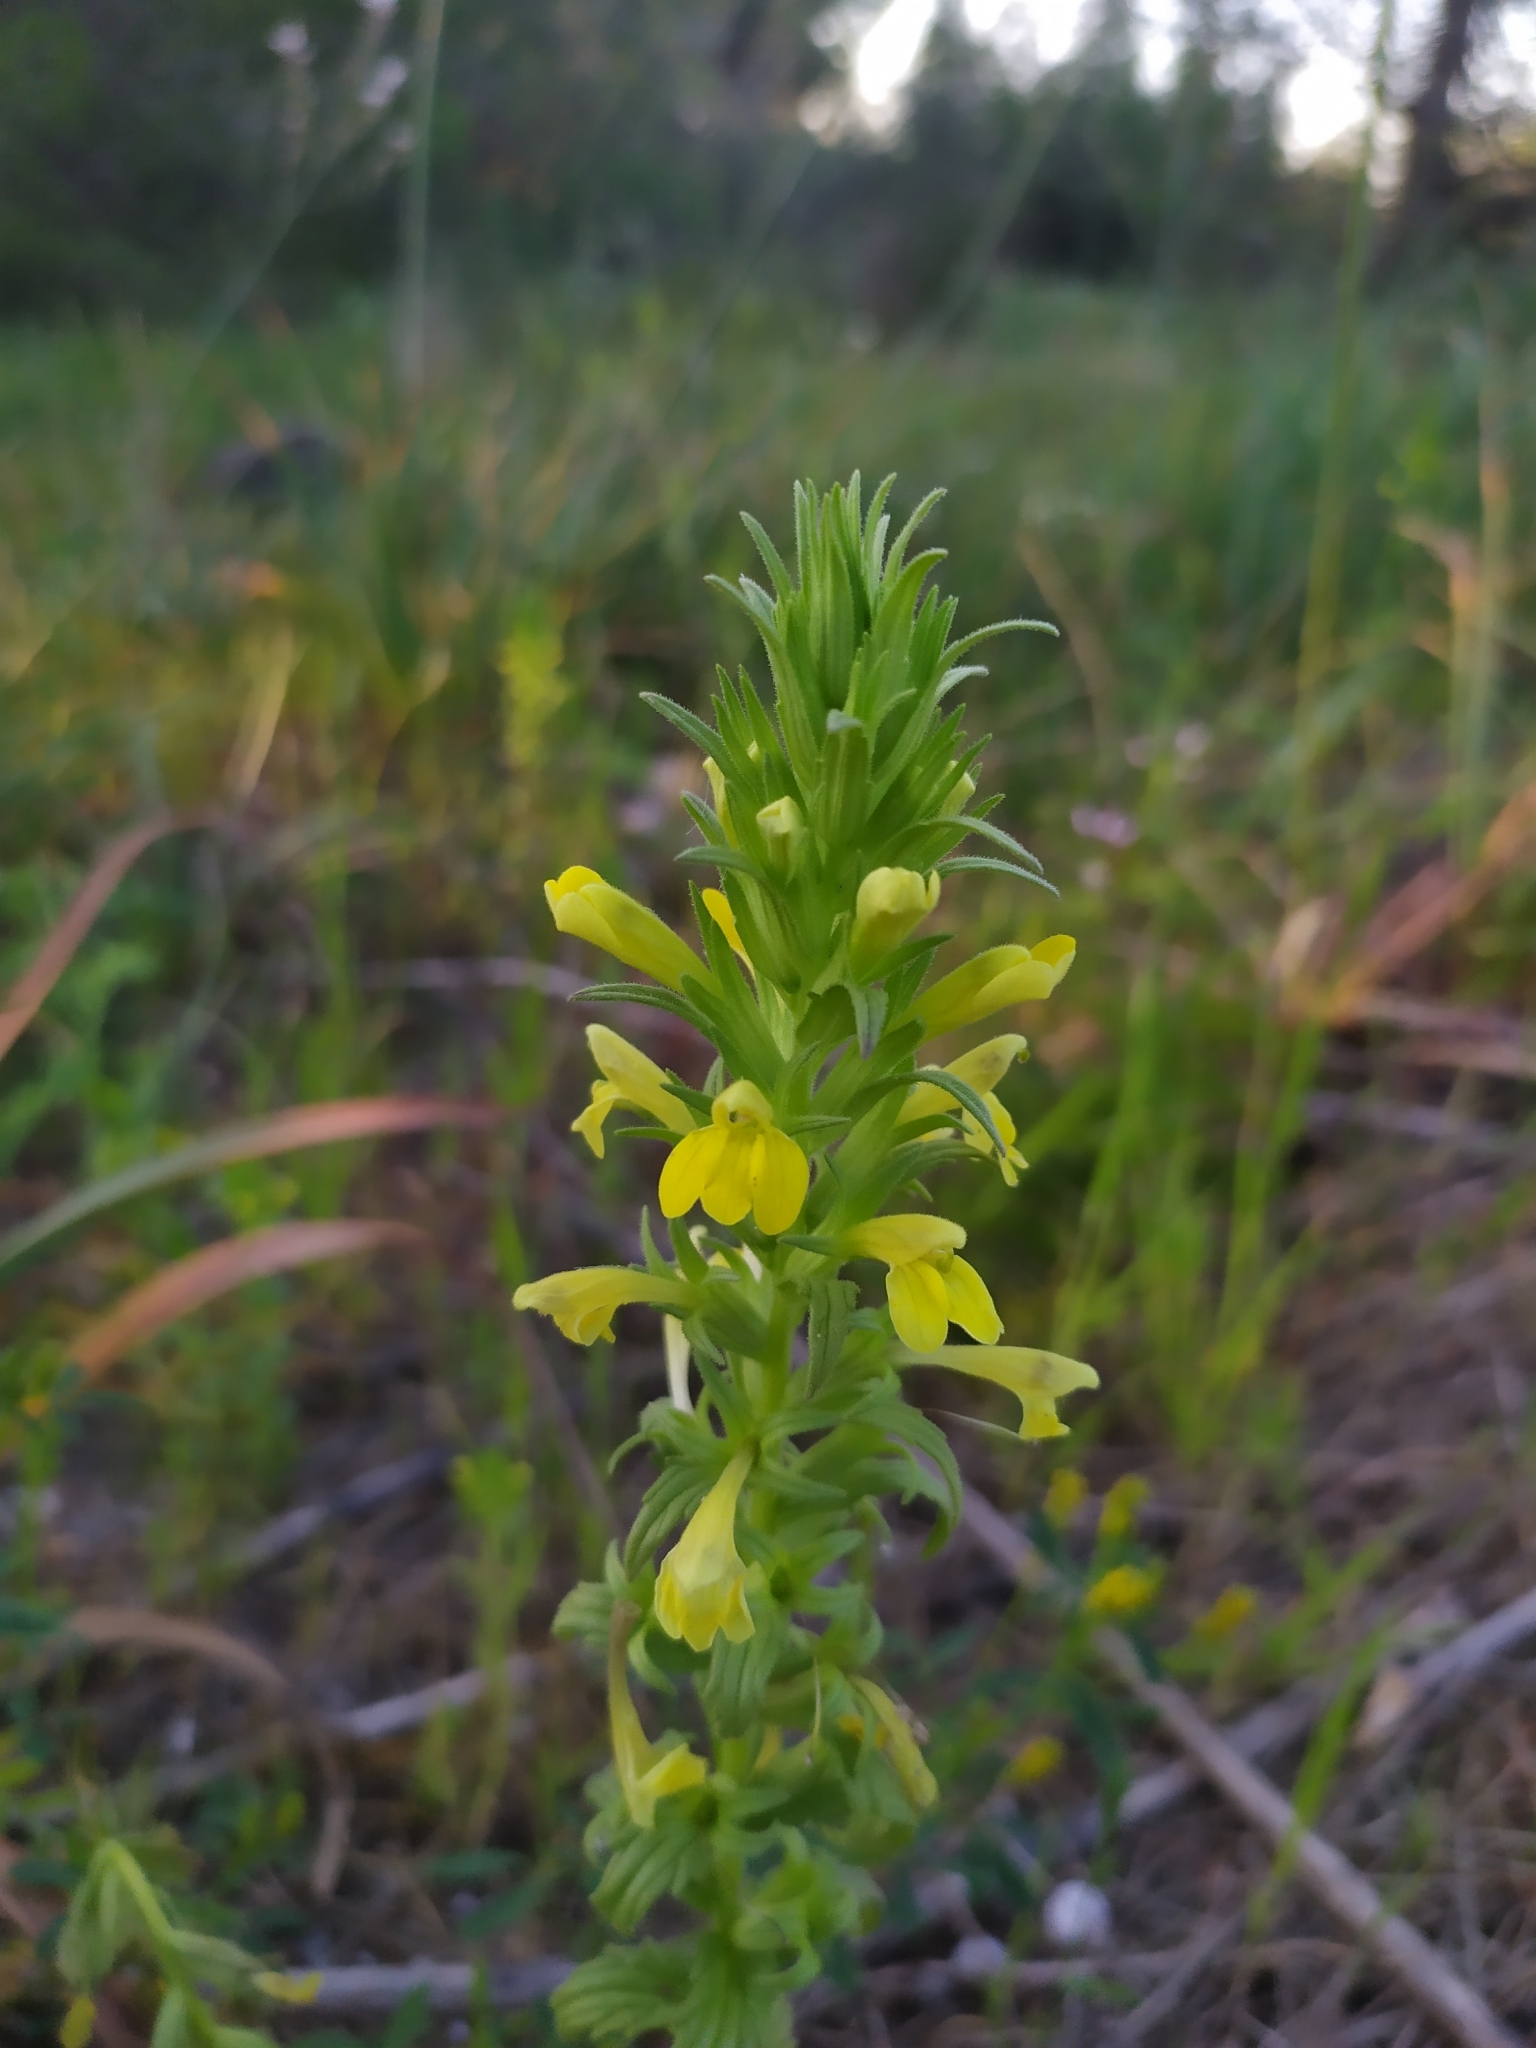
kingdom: Plantae
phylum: Tracheophyta
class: Magnoliopsida
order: Lamiales
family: Orobanchaceae
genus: Bellardia
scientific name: Bellardia viscosa
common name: Sticky parentucellia
